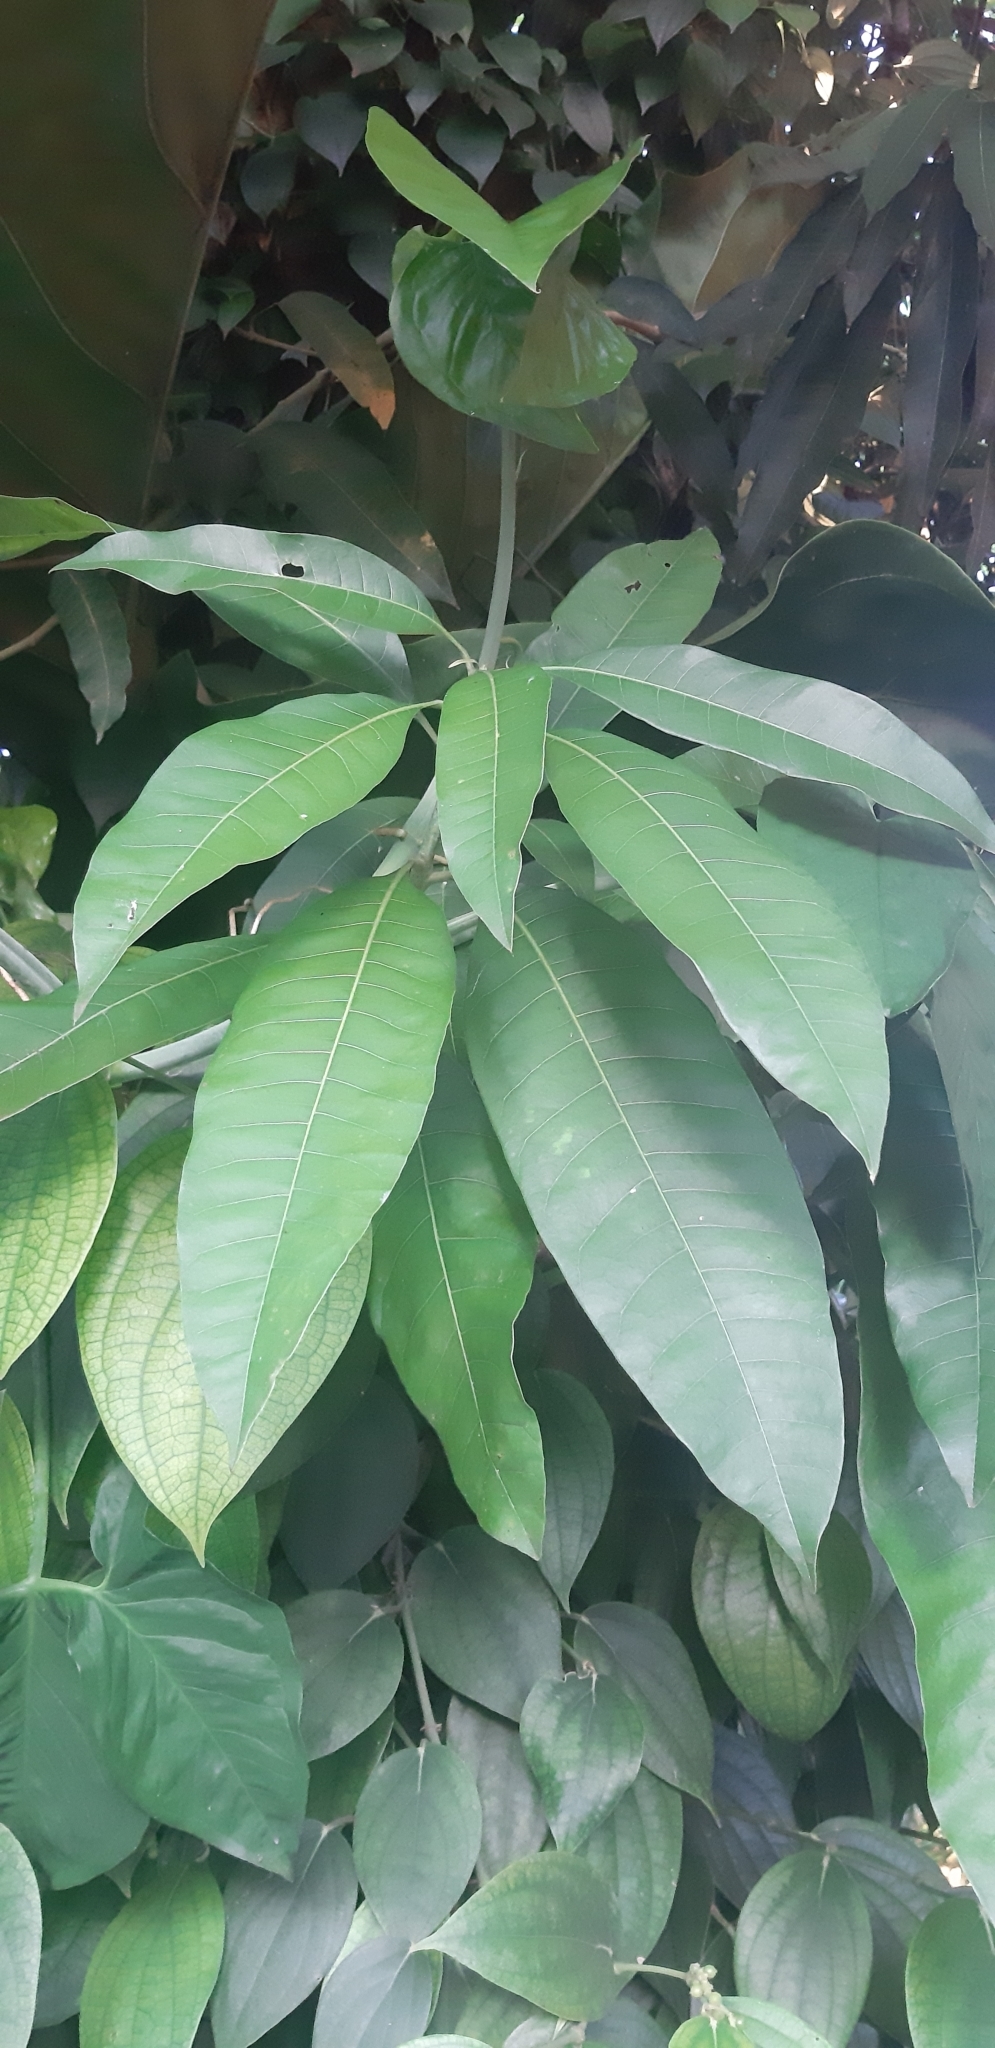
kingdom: Plantae
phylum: Tracheophyta
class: Magnoliopsida
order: Sapindales
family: Anacardiaceae
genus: Mangifera
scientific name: Mangifera indica
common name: Mango
